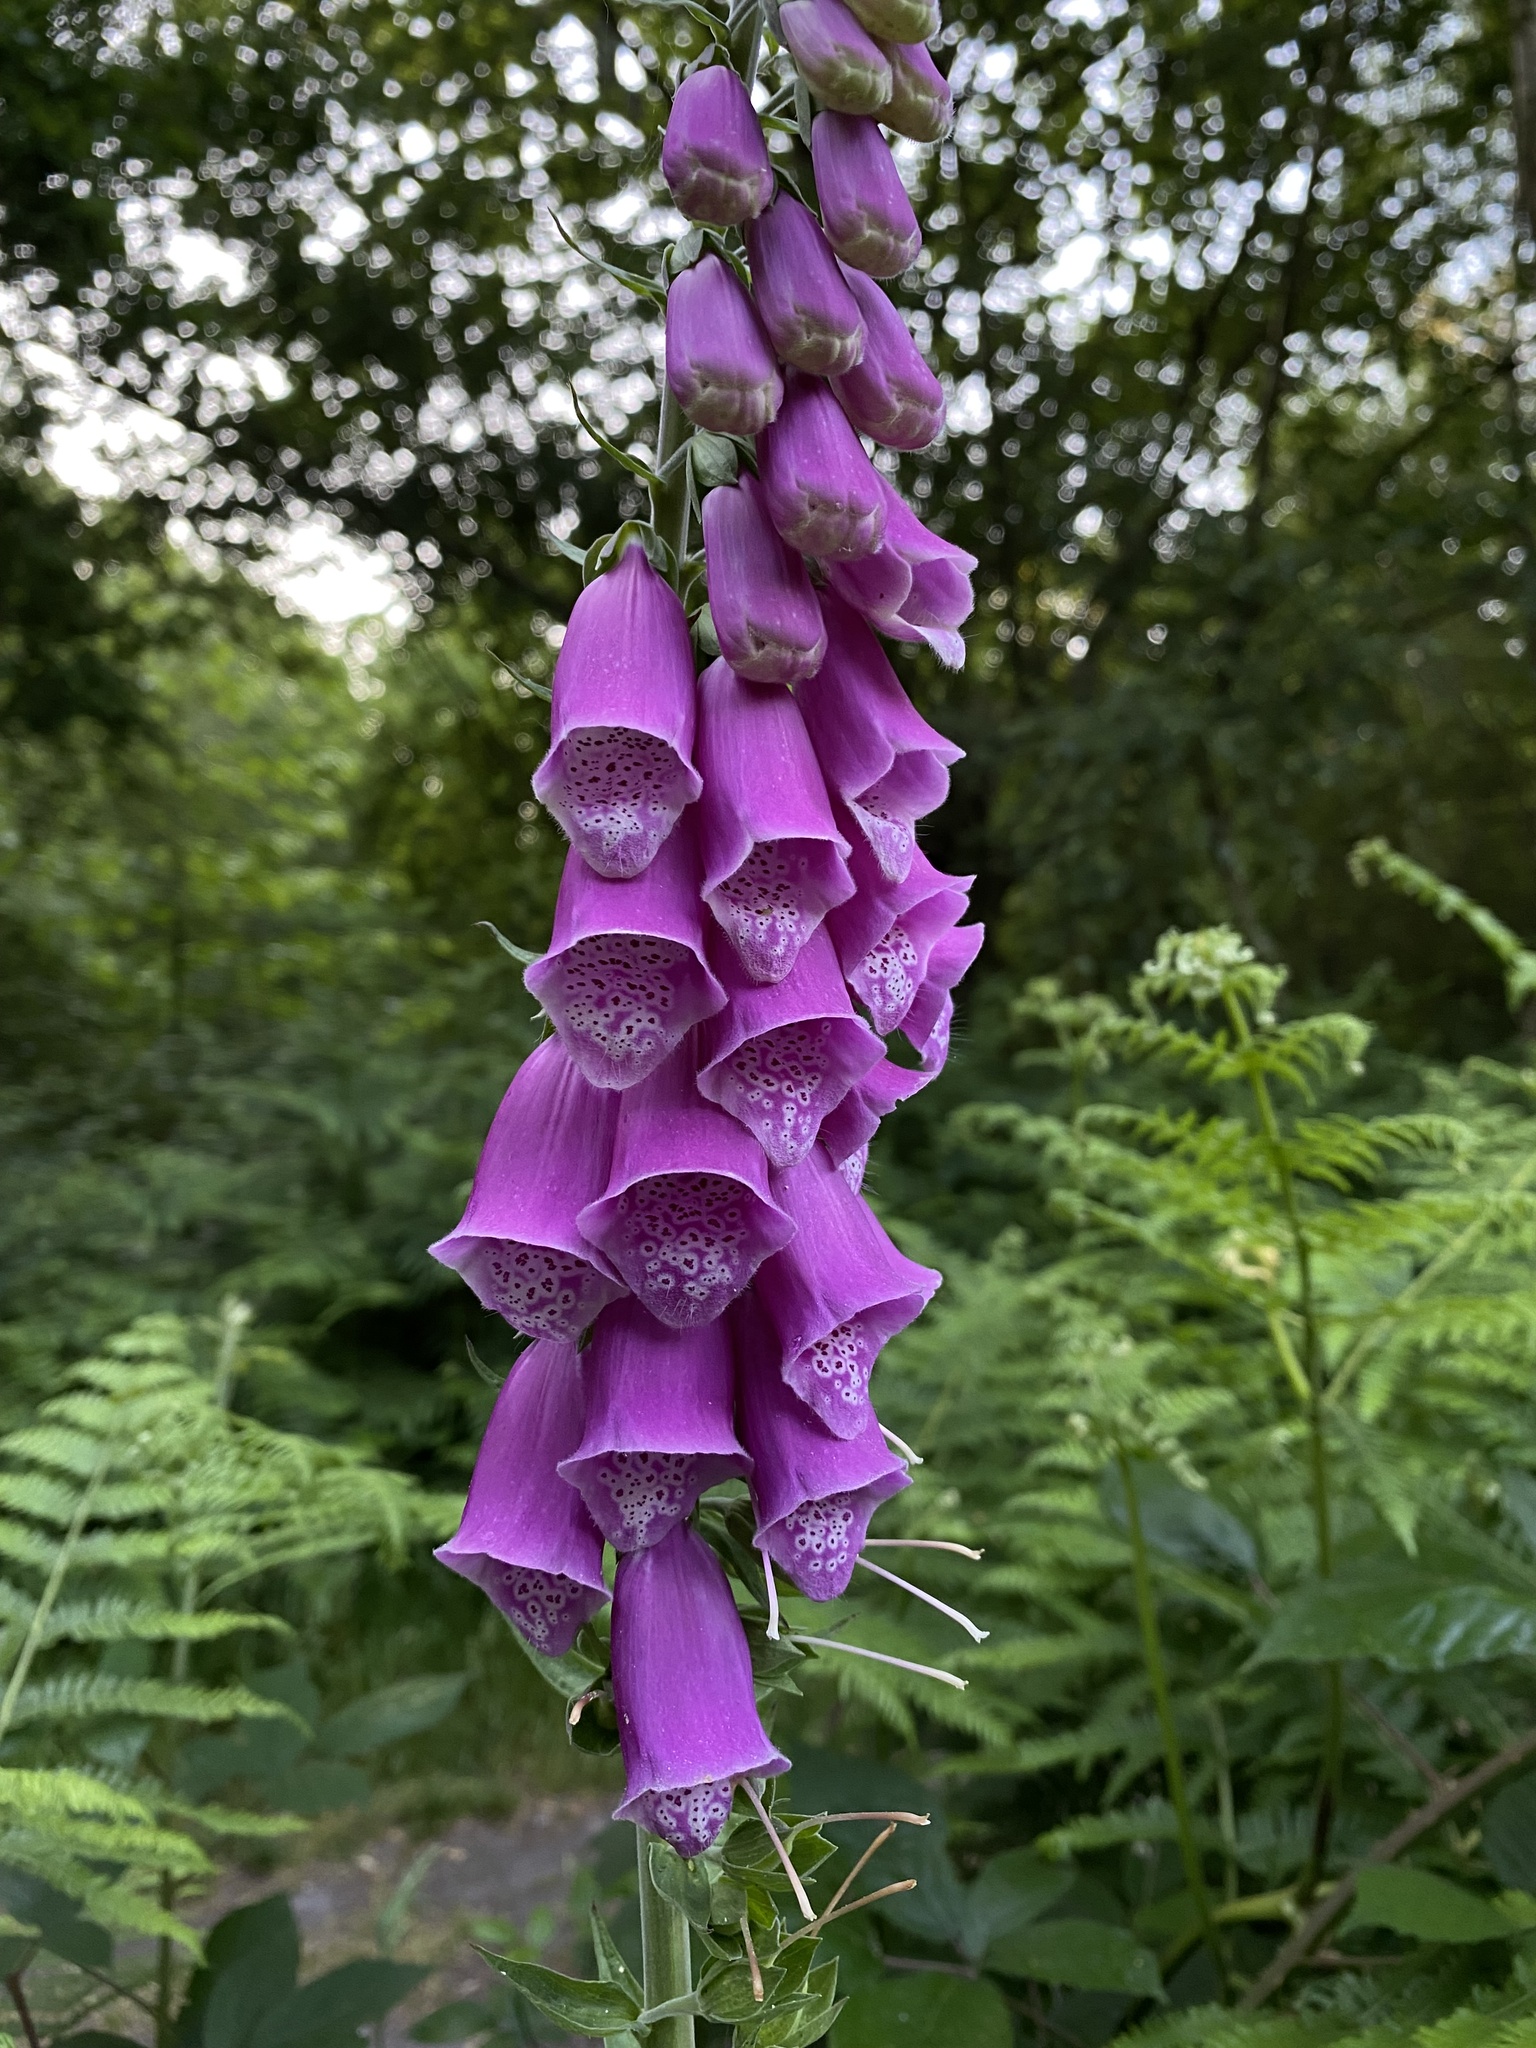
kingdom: Plantae
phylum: Tracheophyta
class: Magnoliopsida
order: Lamiales
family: Plantaginaceae
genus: Digitalis
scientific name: Digitalis purpurea
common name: Foxglove
